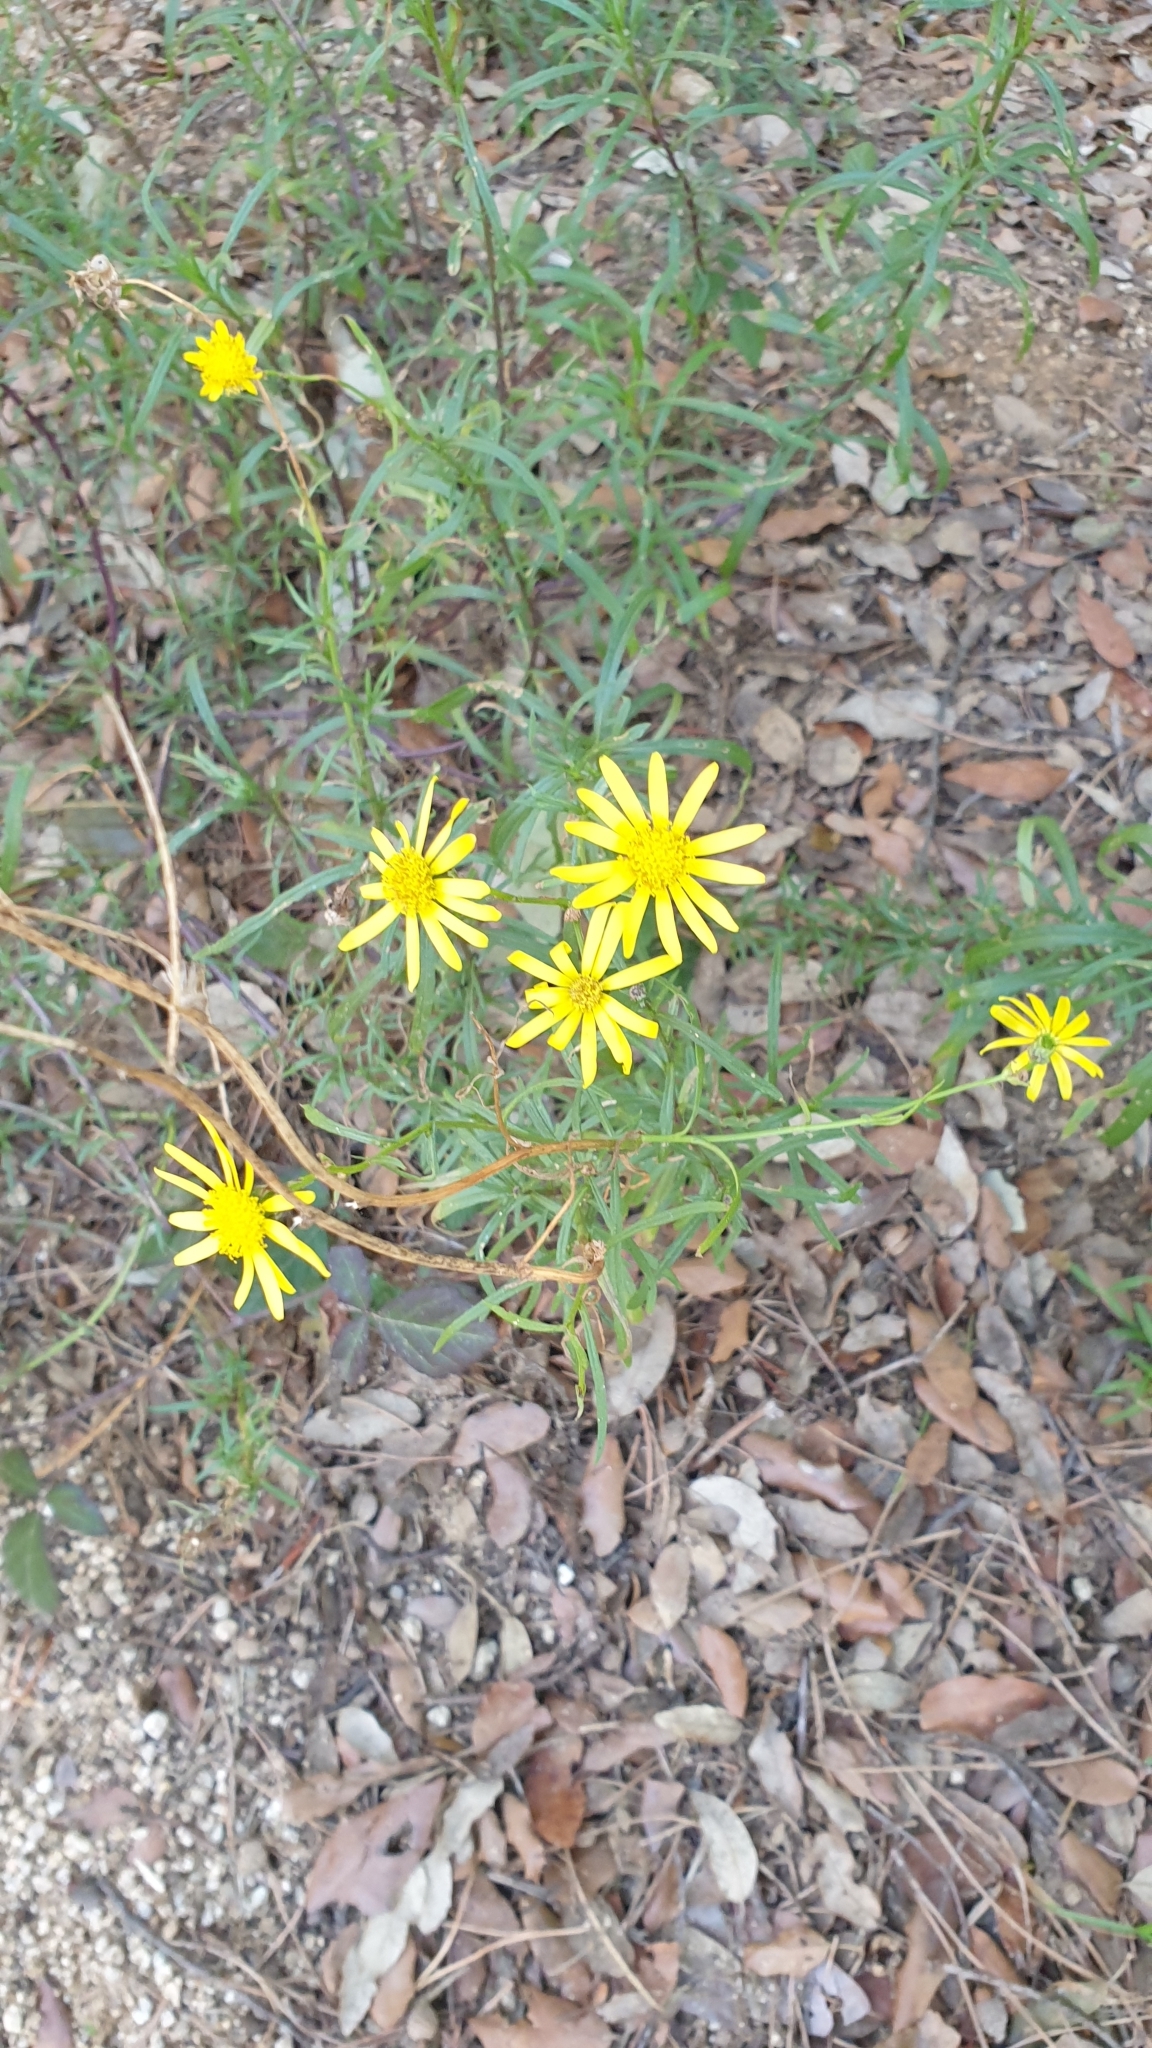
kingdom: Plantae
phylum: Tracheophyta
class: Magnoliopsida
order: Asterales
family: Asteraceae
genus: Senecio
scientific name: Senecio inaequidens
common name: Narrow-leaved ragwort
